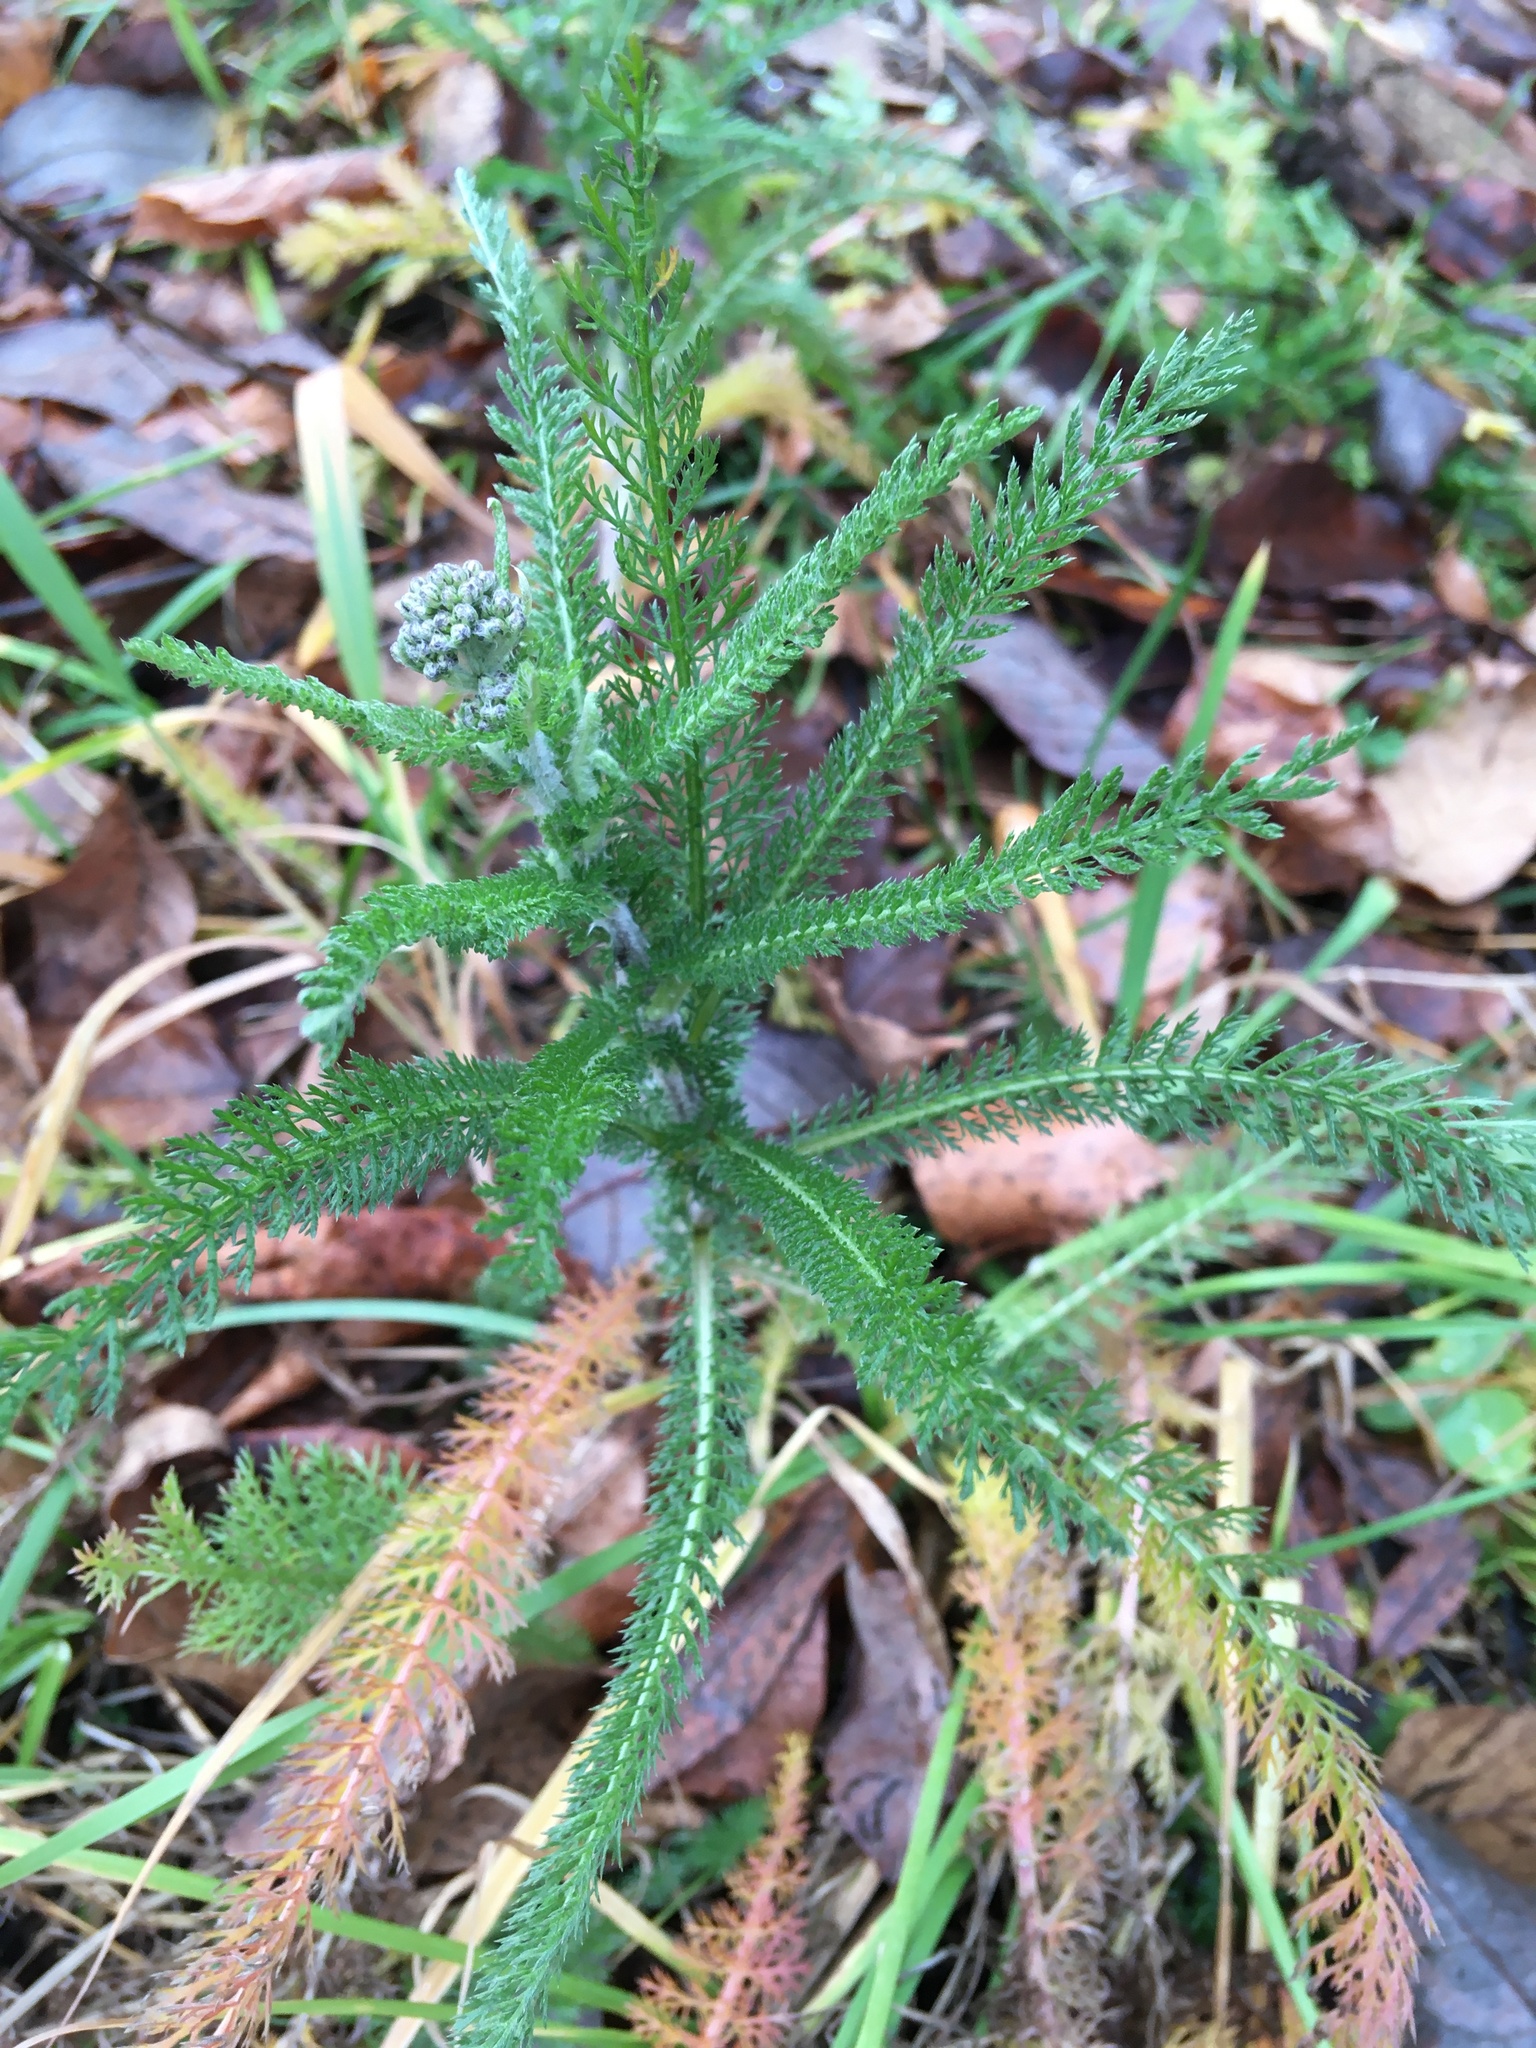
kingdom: Plantae
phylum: Tracheophyta
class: Magnoliopsida
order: Asterales
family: Asteraceae
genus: Achillea
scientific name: Achillea millefolium
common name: Yarrow
